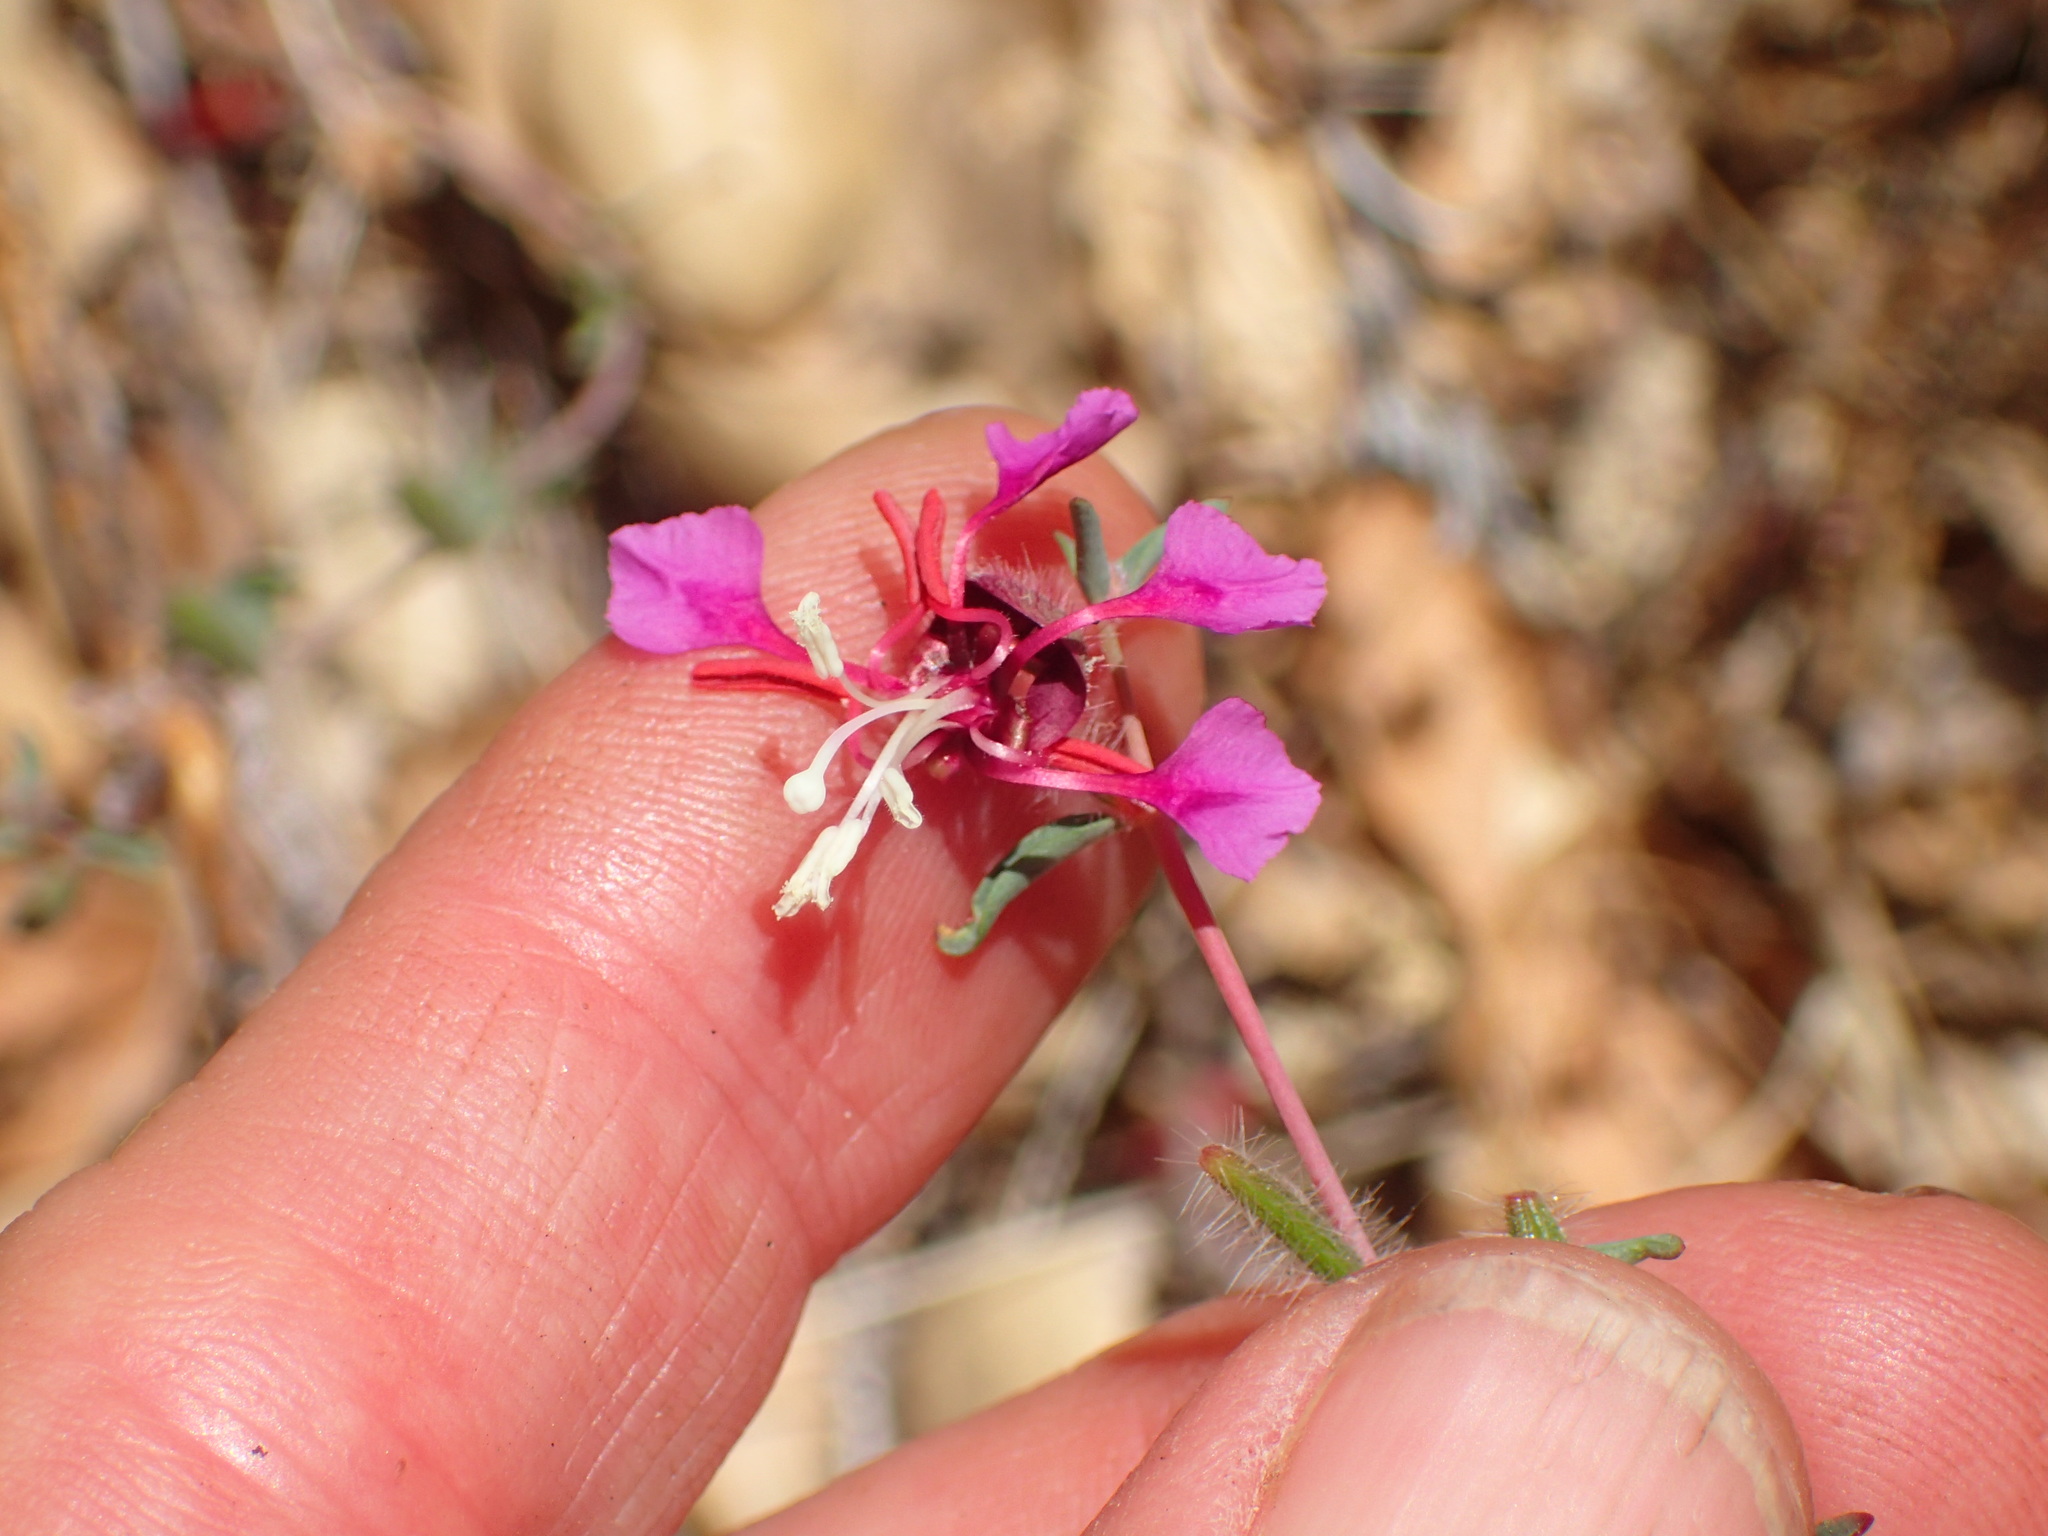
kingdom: Plantae
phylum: Tracheophyta
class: Magnoliopsida
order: Myrtales
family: Onagraceae
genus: Clarkia
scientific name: Clarkia unguiculata
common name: Clarkia
